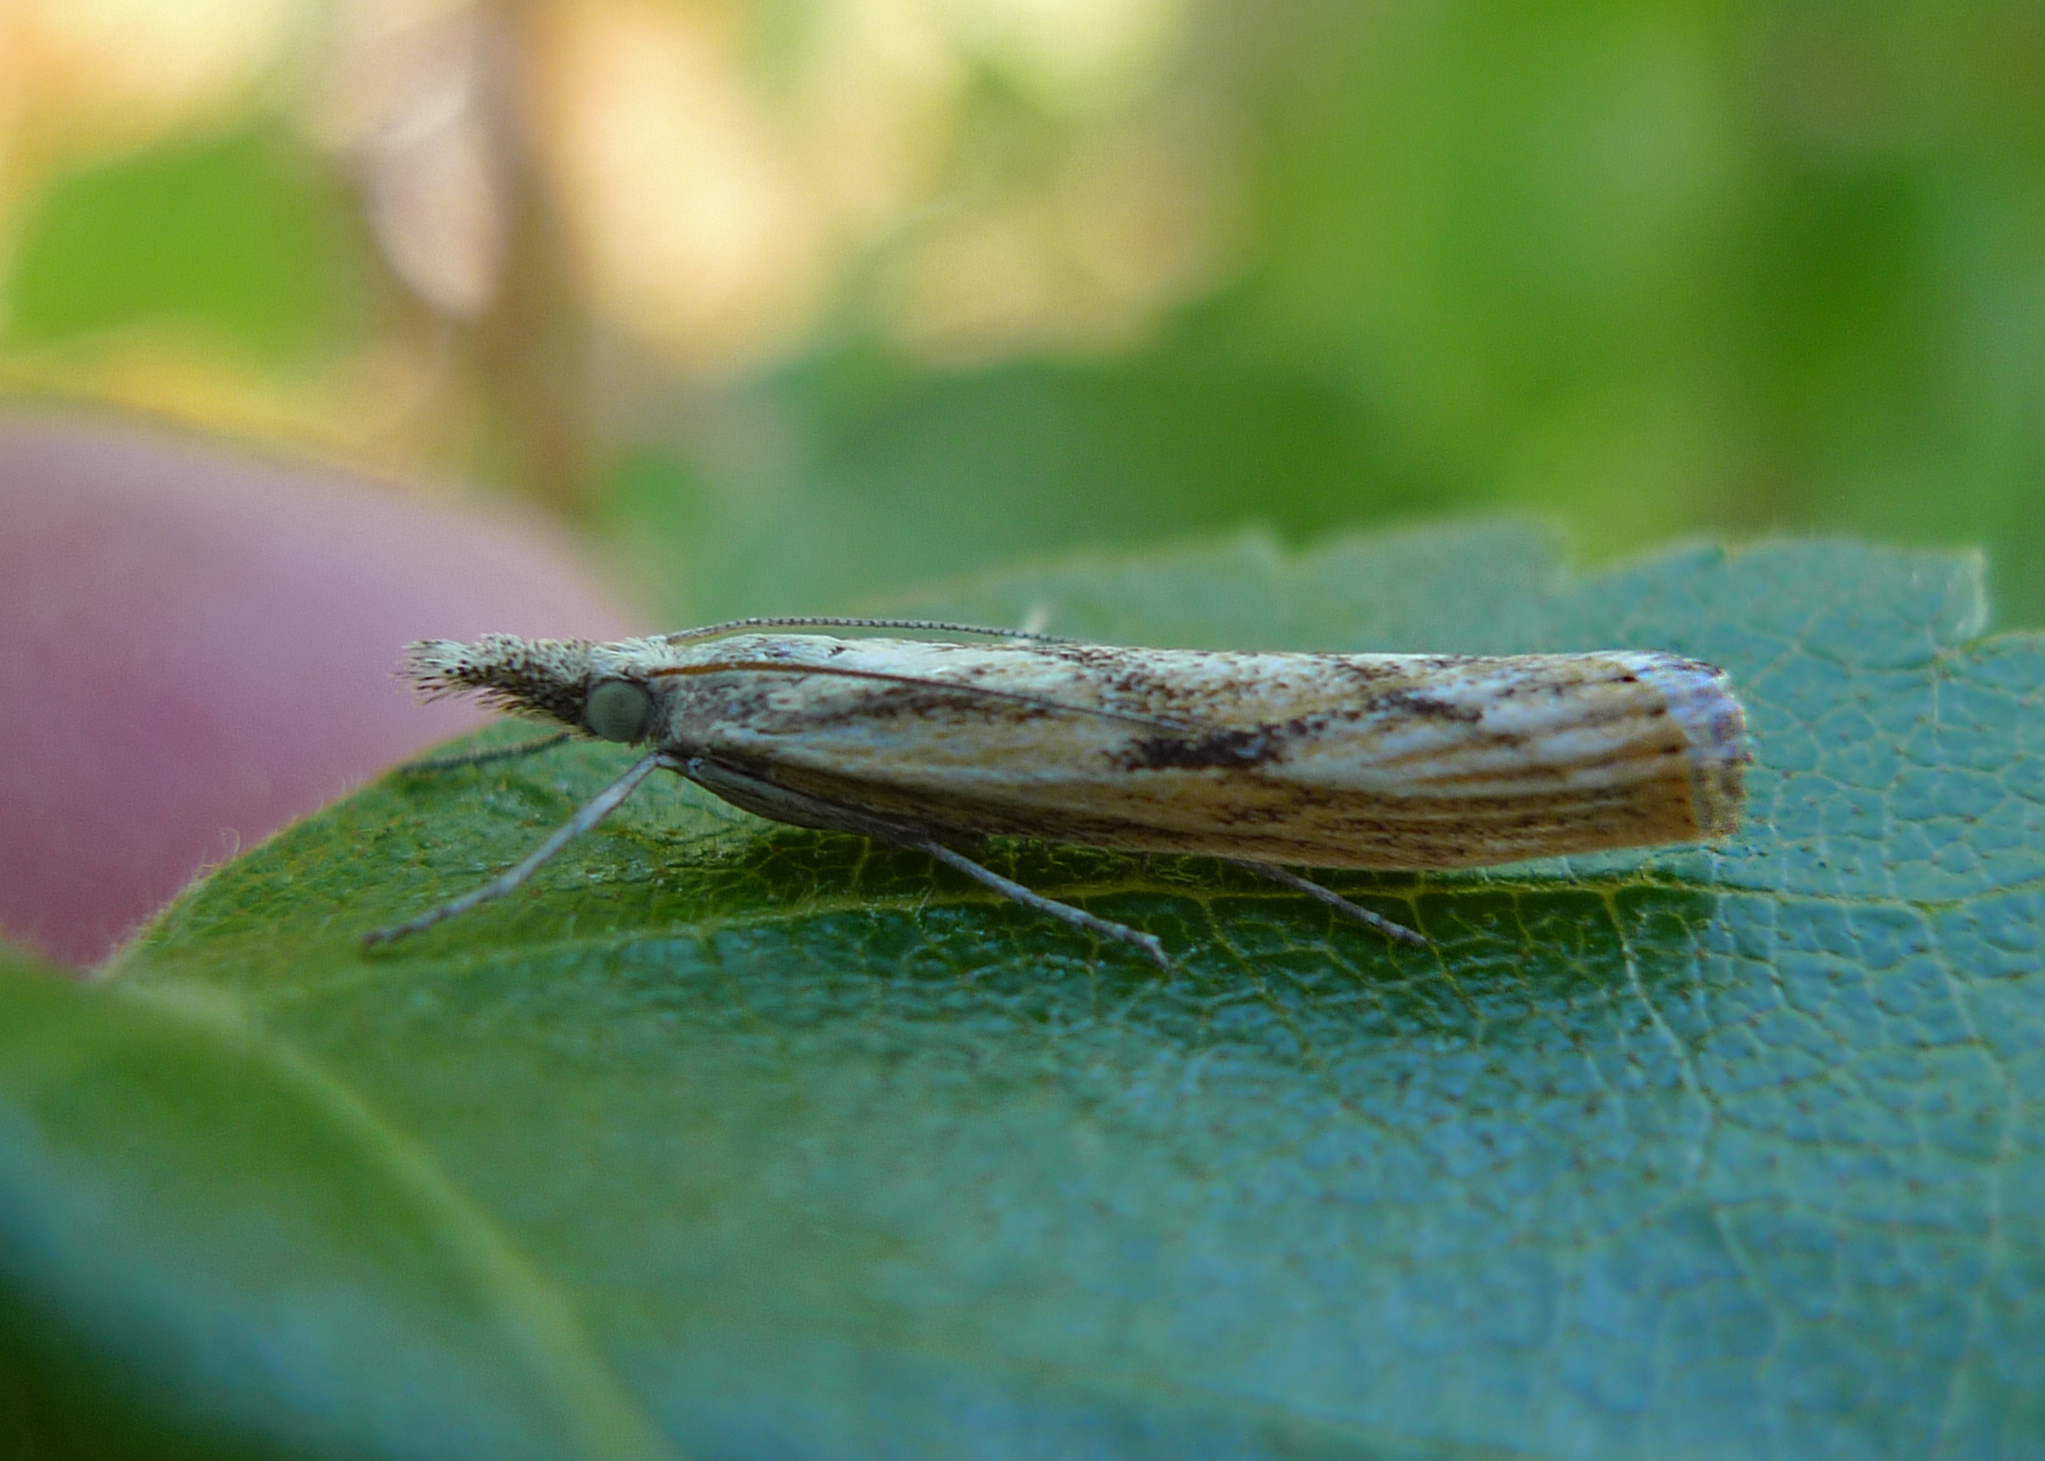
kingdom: Animalia
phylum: Arthropoda
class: Insecta
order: Lepidoptera
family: Crambidae
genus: Agriphila
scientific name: Agriphila inquinatella
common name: Barred grass-veneer
